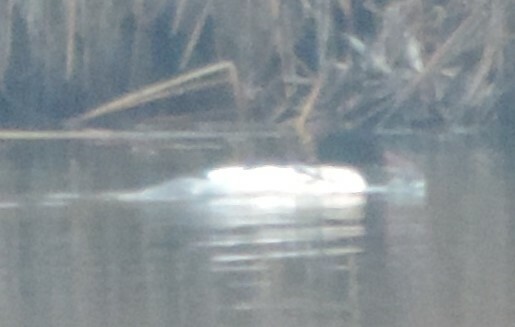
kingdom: Animalia
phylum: Chordata
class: Aves
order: Anseriformes
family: Anatidae
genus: Mergus
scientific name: Mergus merganser
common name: Common merganser
